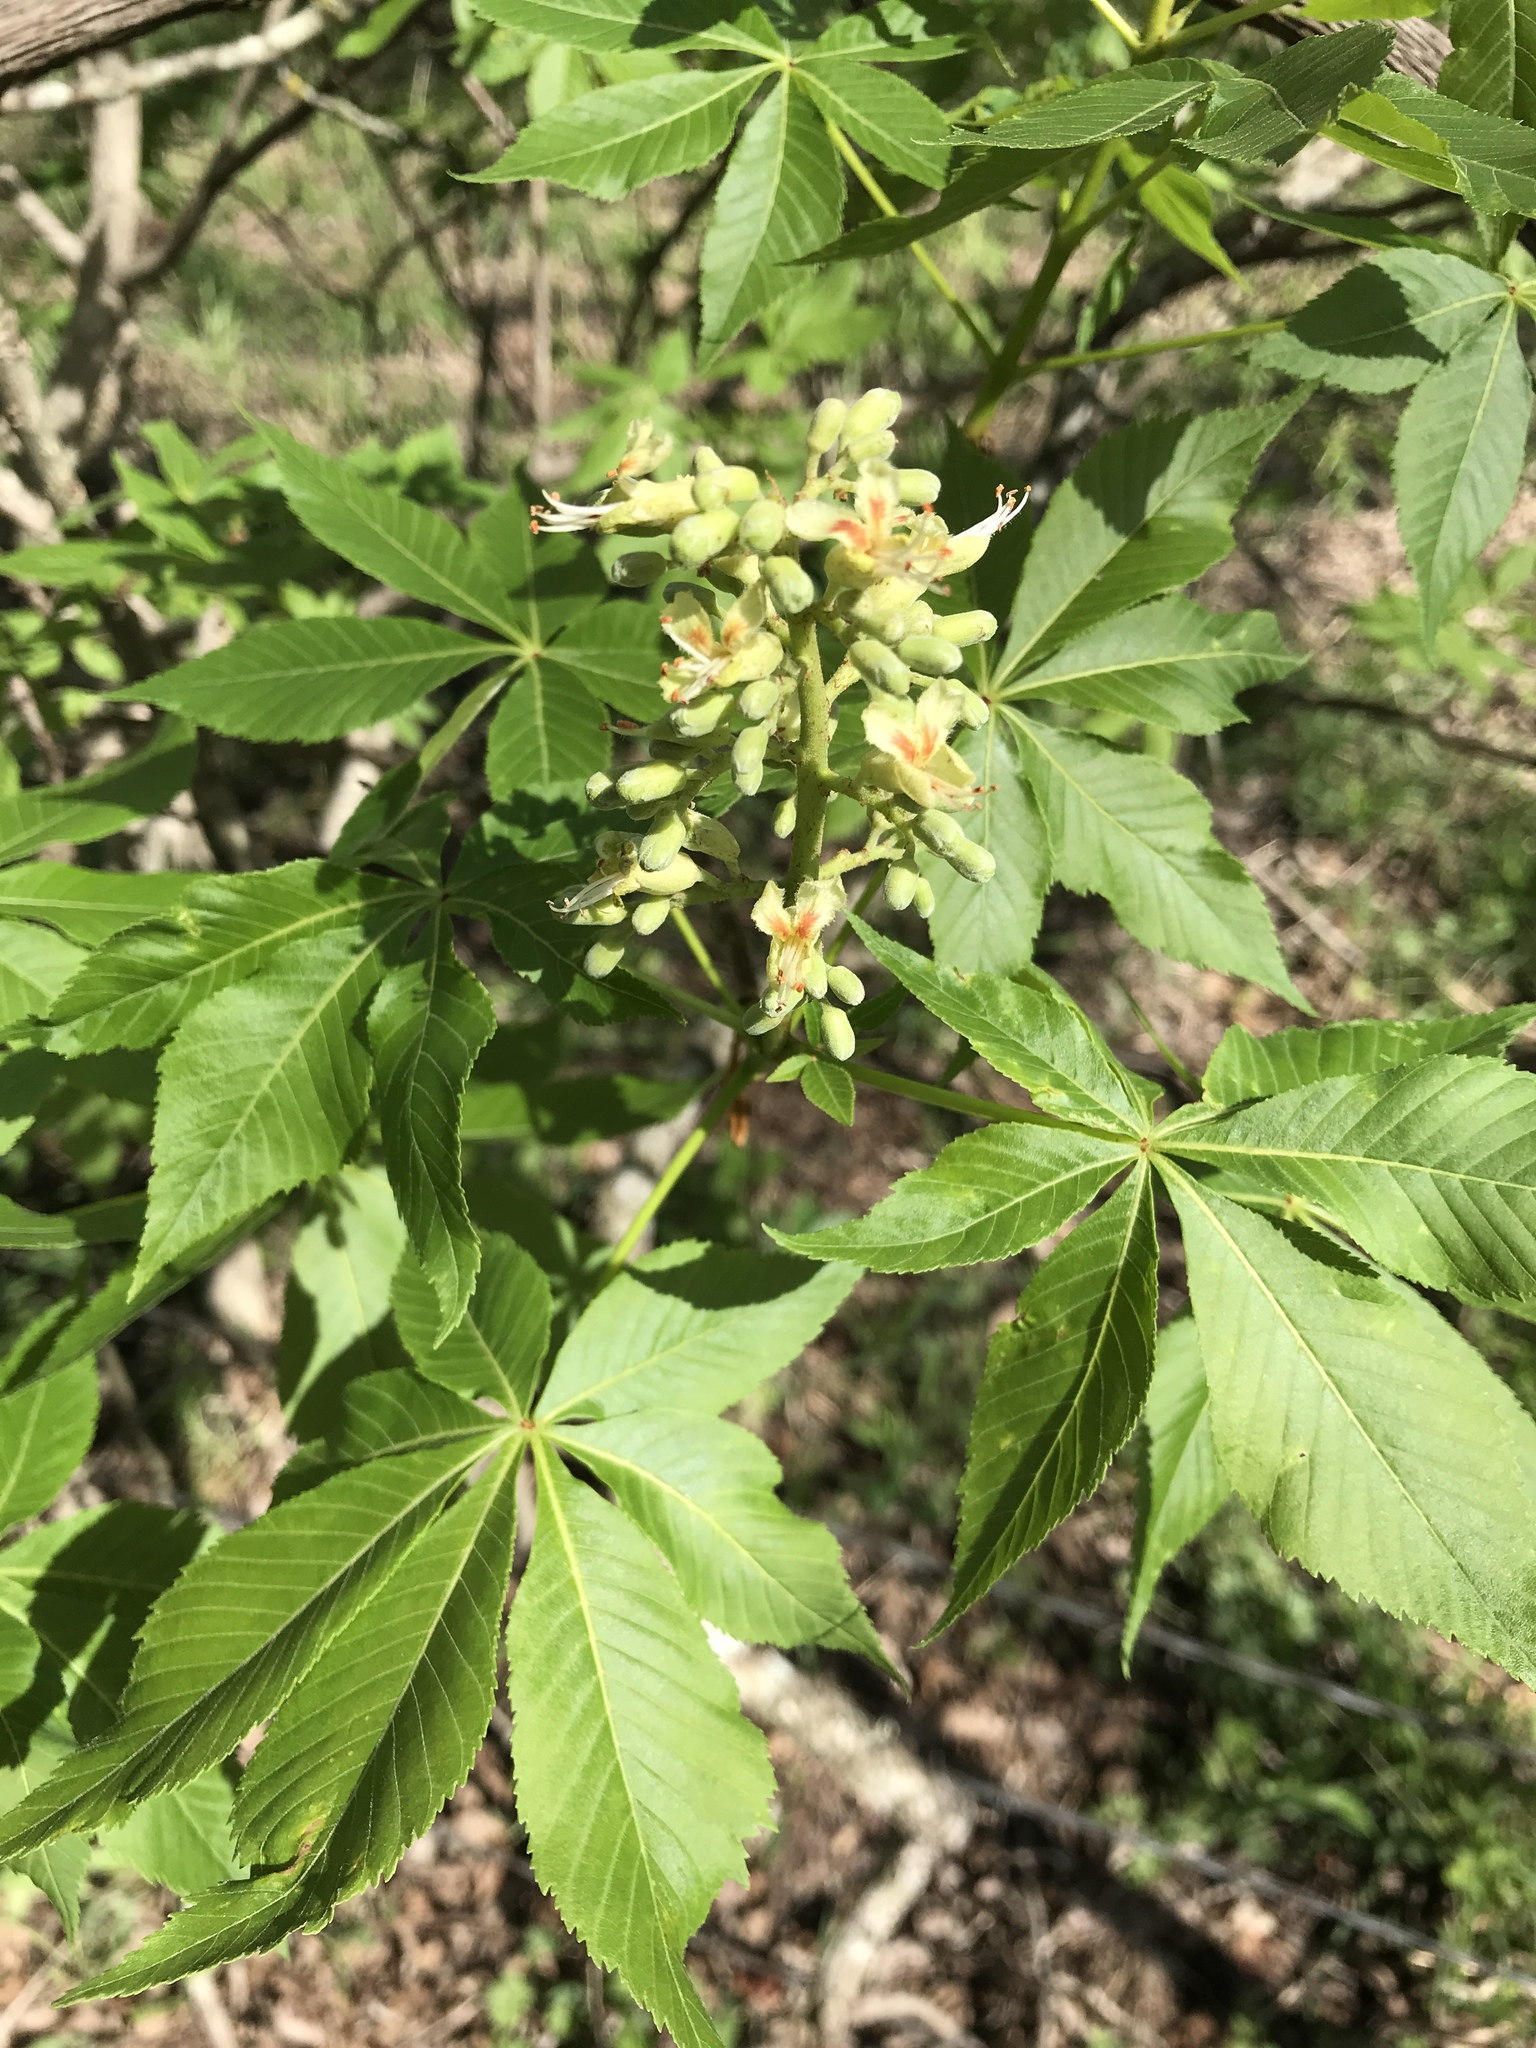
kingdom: Plantae
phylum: Tracheophyta
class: Magnoliopsida
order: Sapindales
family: Sapindaceae
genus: Aesculus
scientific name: Aesculus glabra
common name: Ohio buckeye
